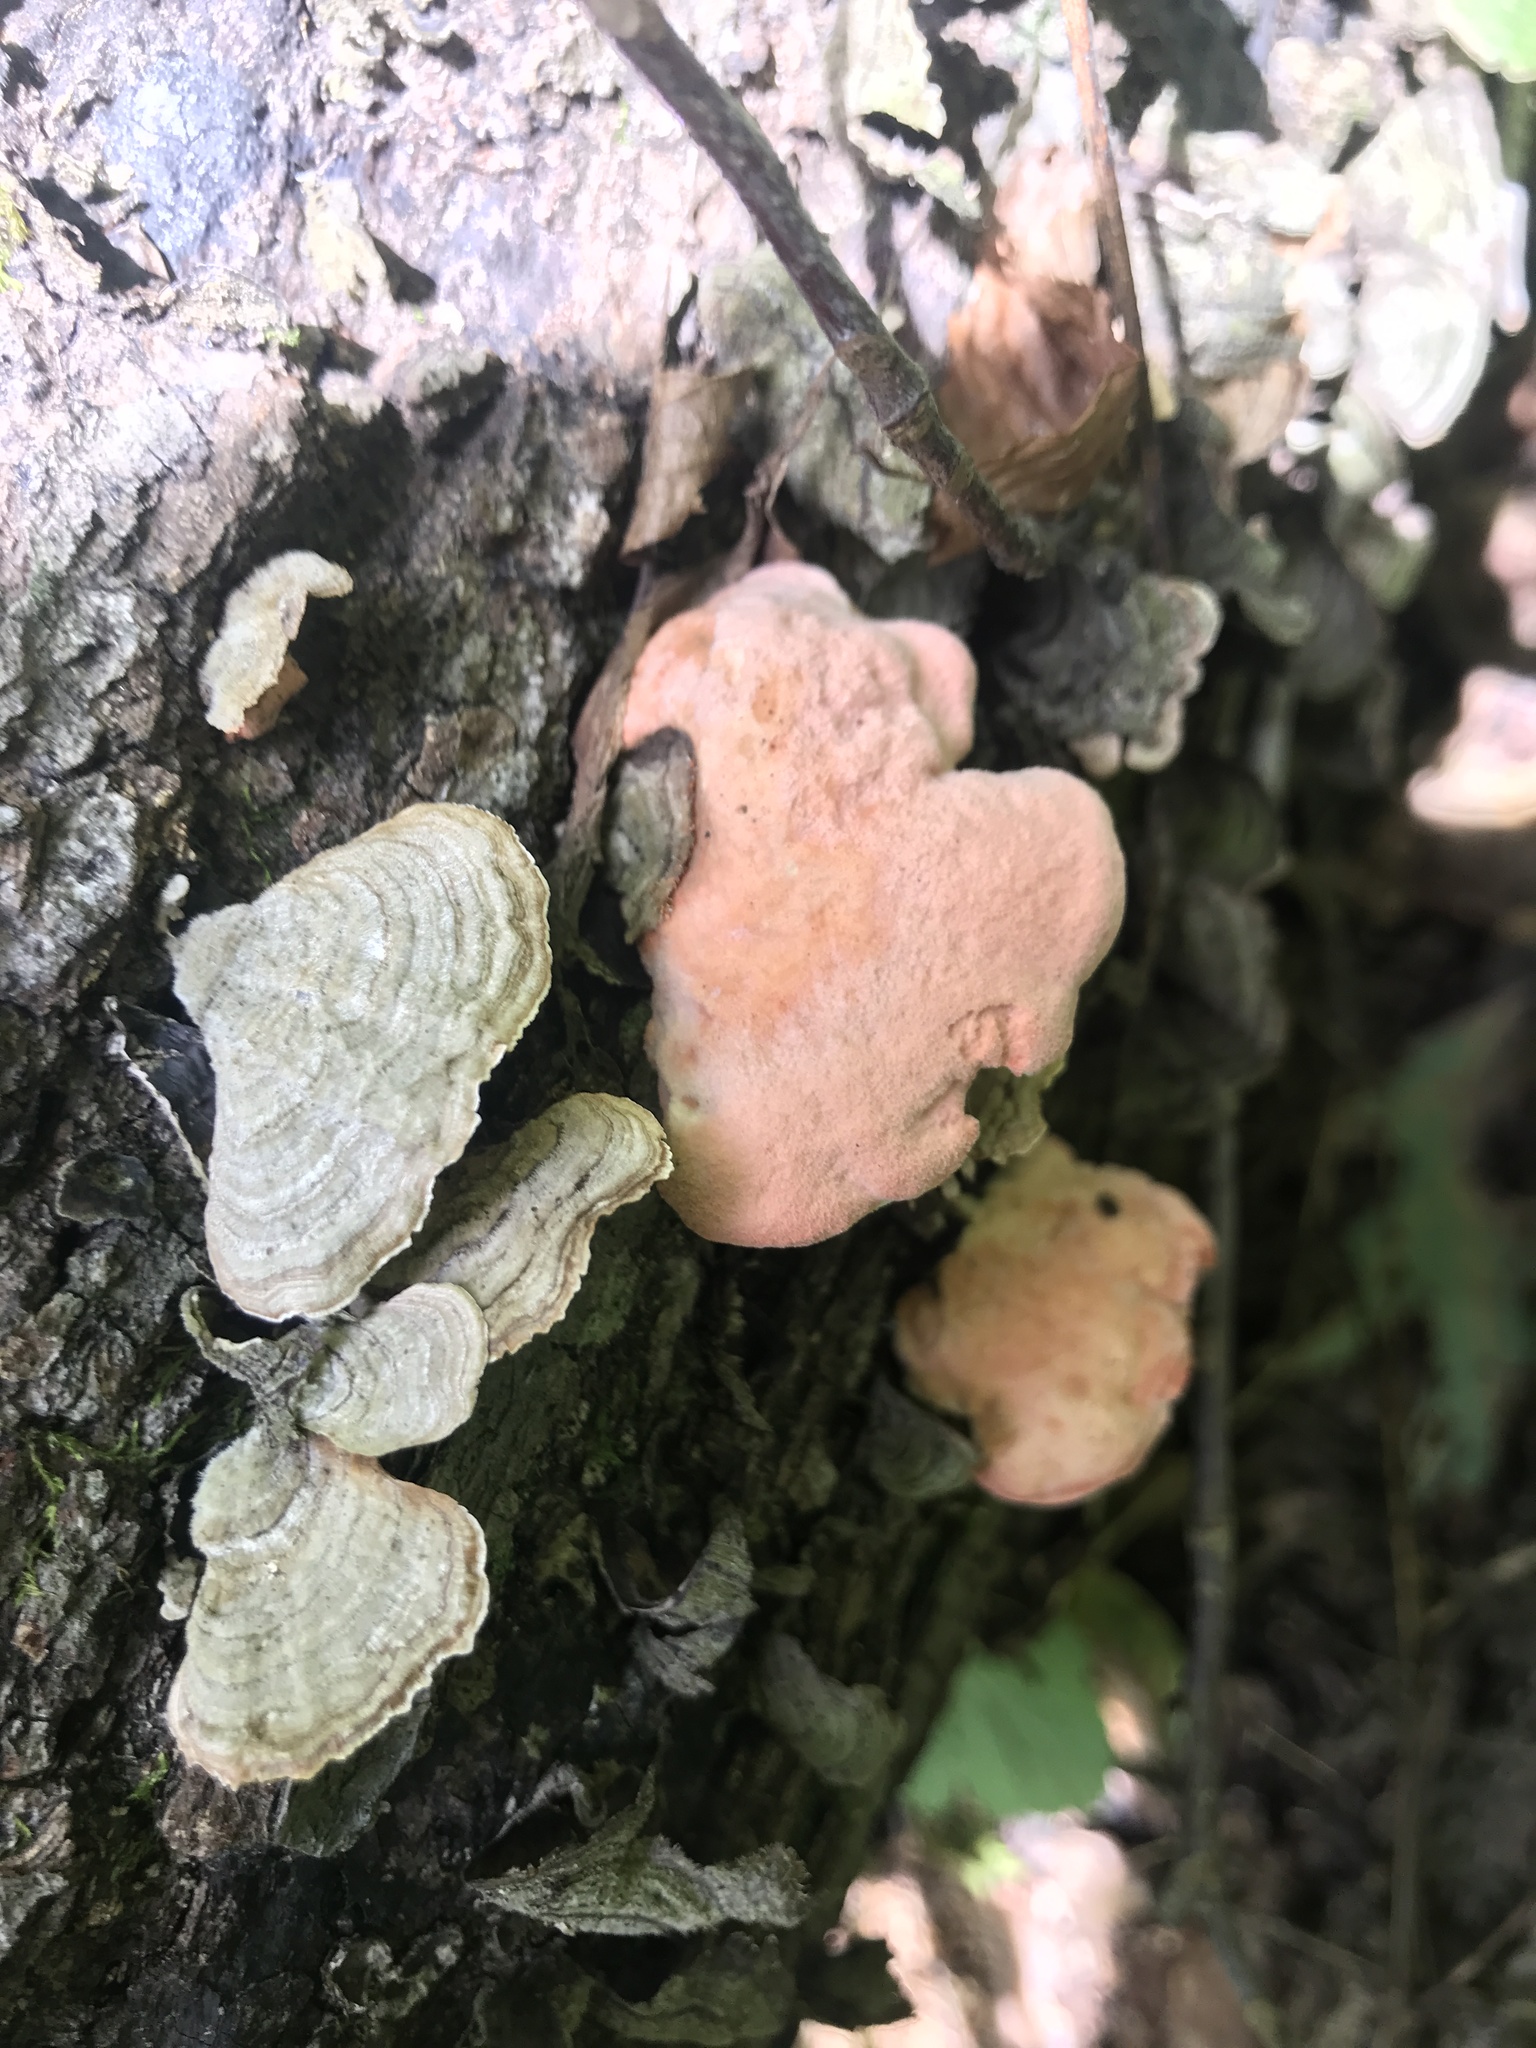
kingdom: Fungi
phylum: Basidiomycota
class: Agaricomycetes
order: Polyporales
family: Irpicaceae
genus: Byssomerulius
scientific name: Byssomerulius incarnatus
